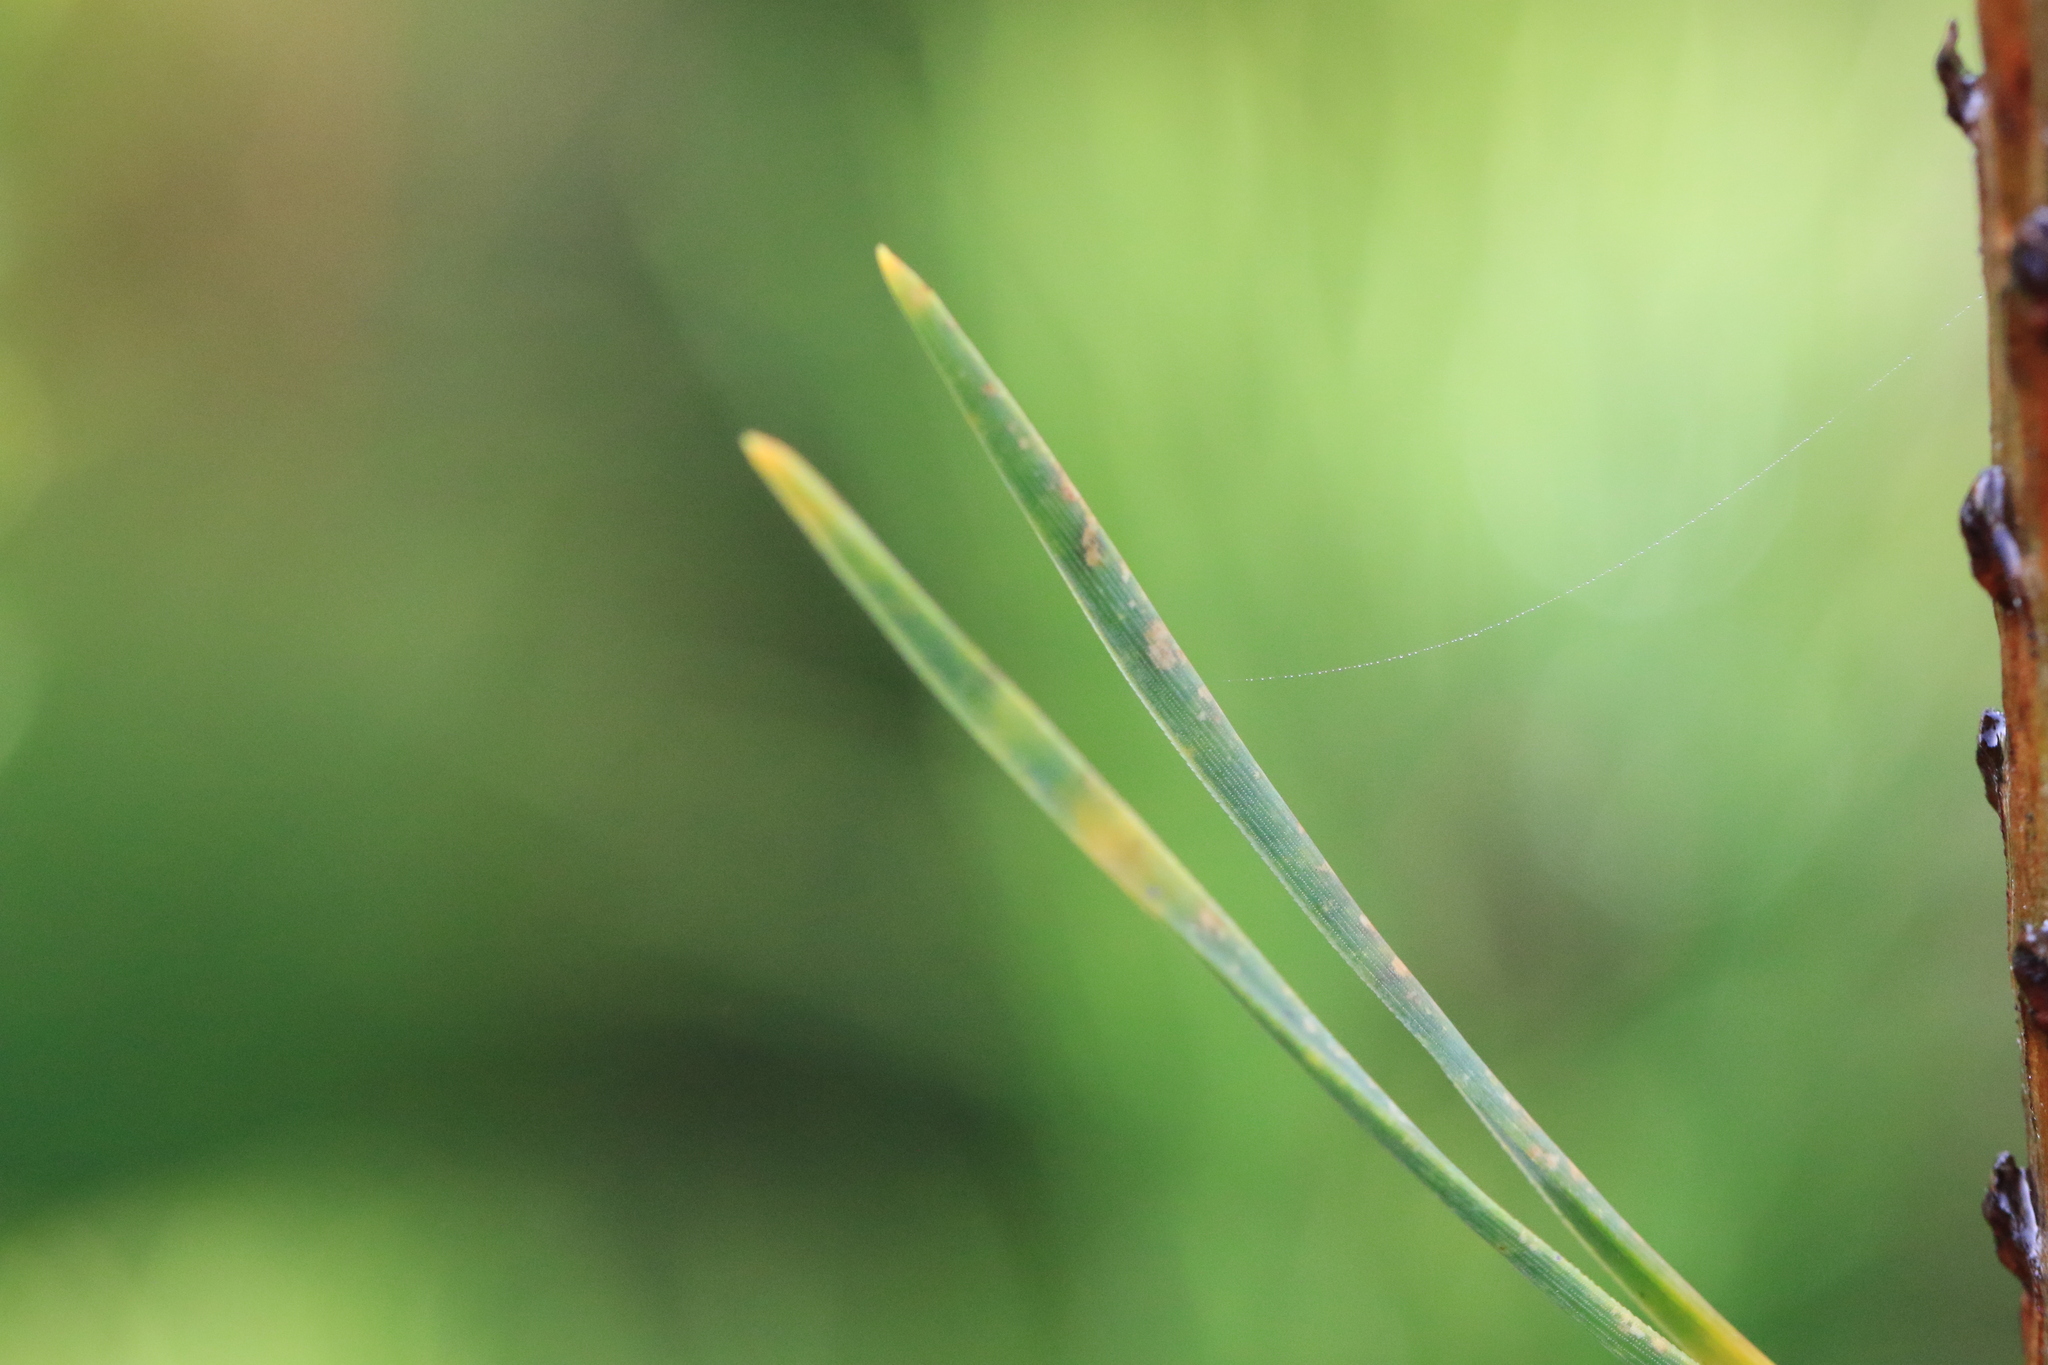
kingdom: Plantae
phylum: Tracheophyta
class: Pinopsida
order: Pinales
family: Pinaceae
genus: Pinus
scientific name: Pinus contorta
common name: Lodgepole pine
